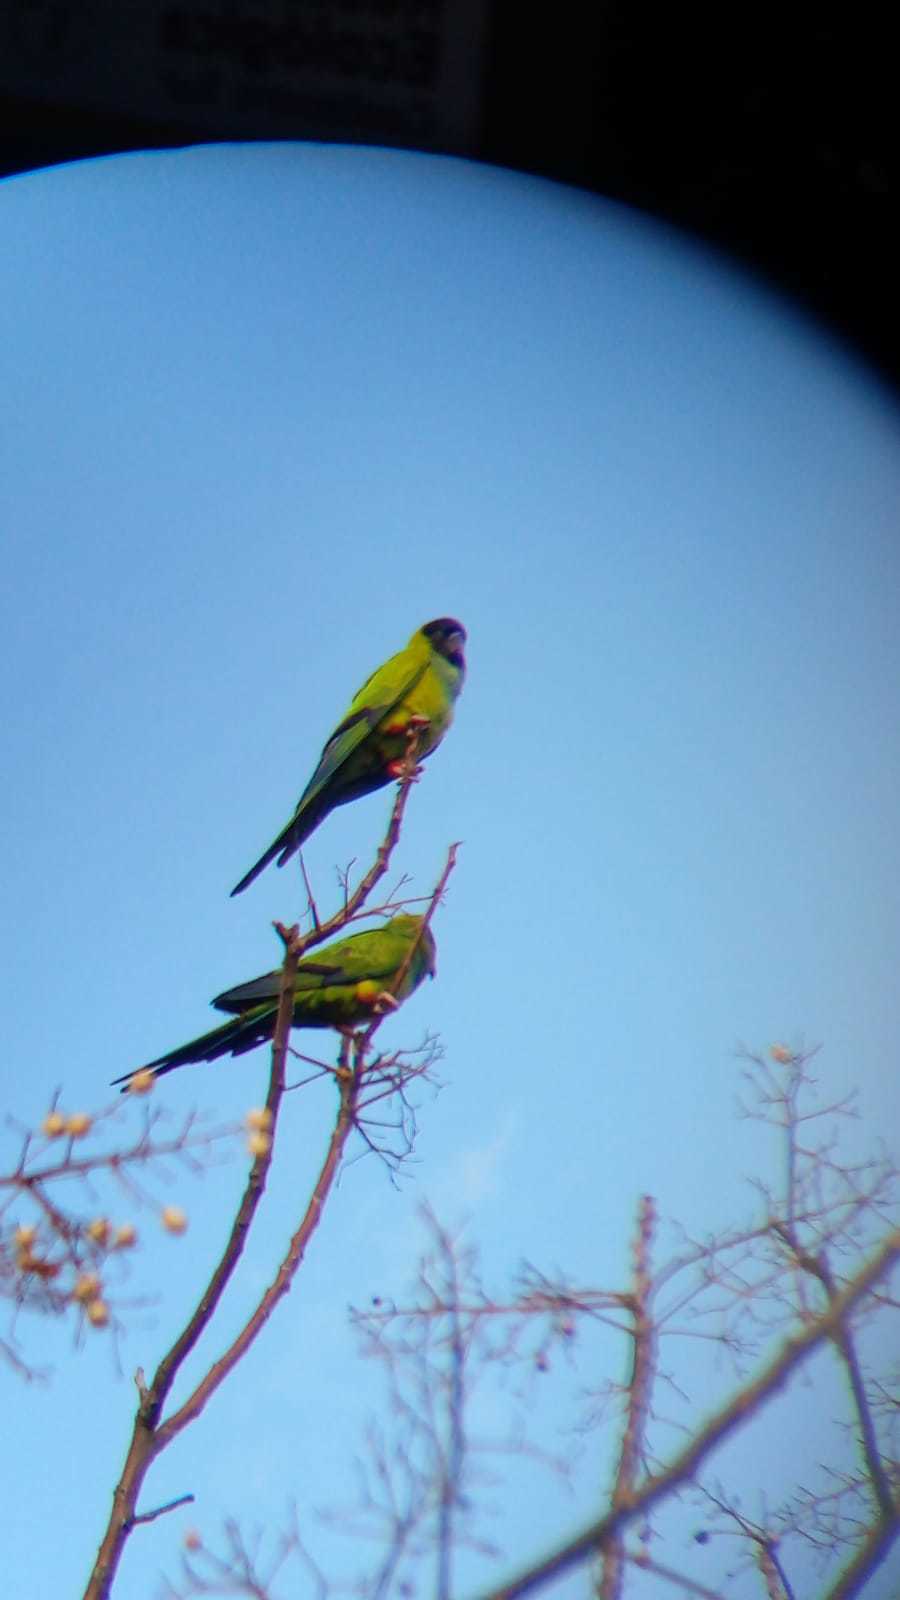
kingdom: Animalia
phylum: Chordata
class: Aves
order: Psittaciformes
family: Psittacidae
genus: Nandayus
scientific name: Nandayus nenday
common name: Nanday parakeet
